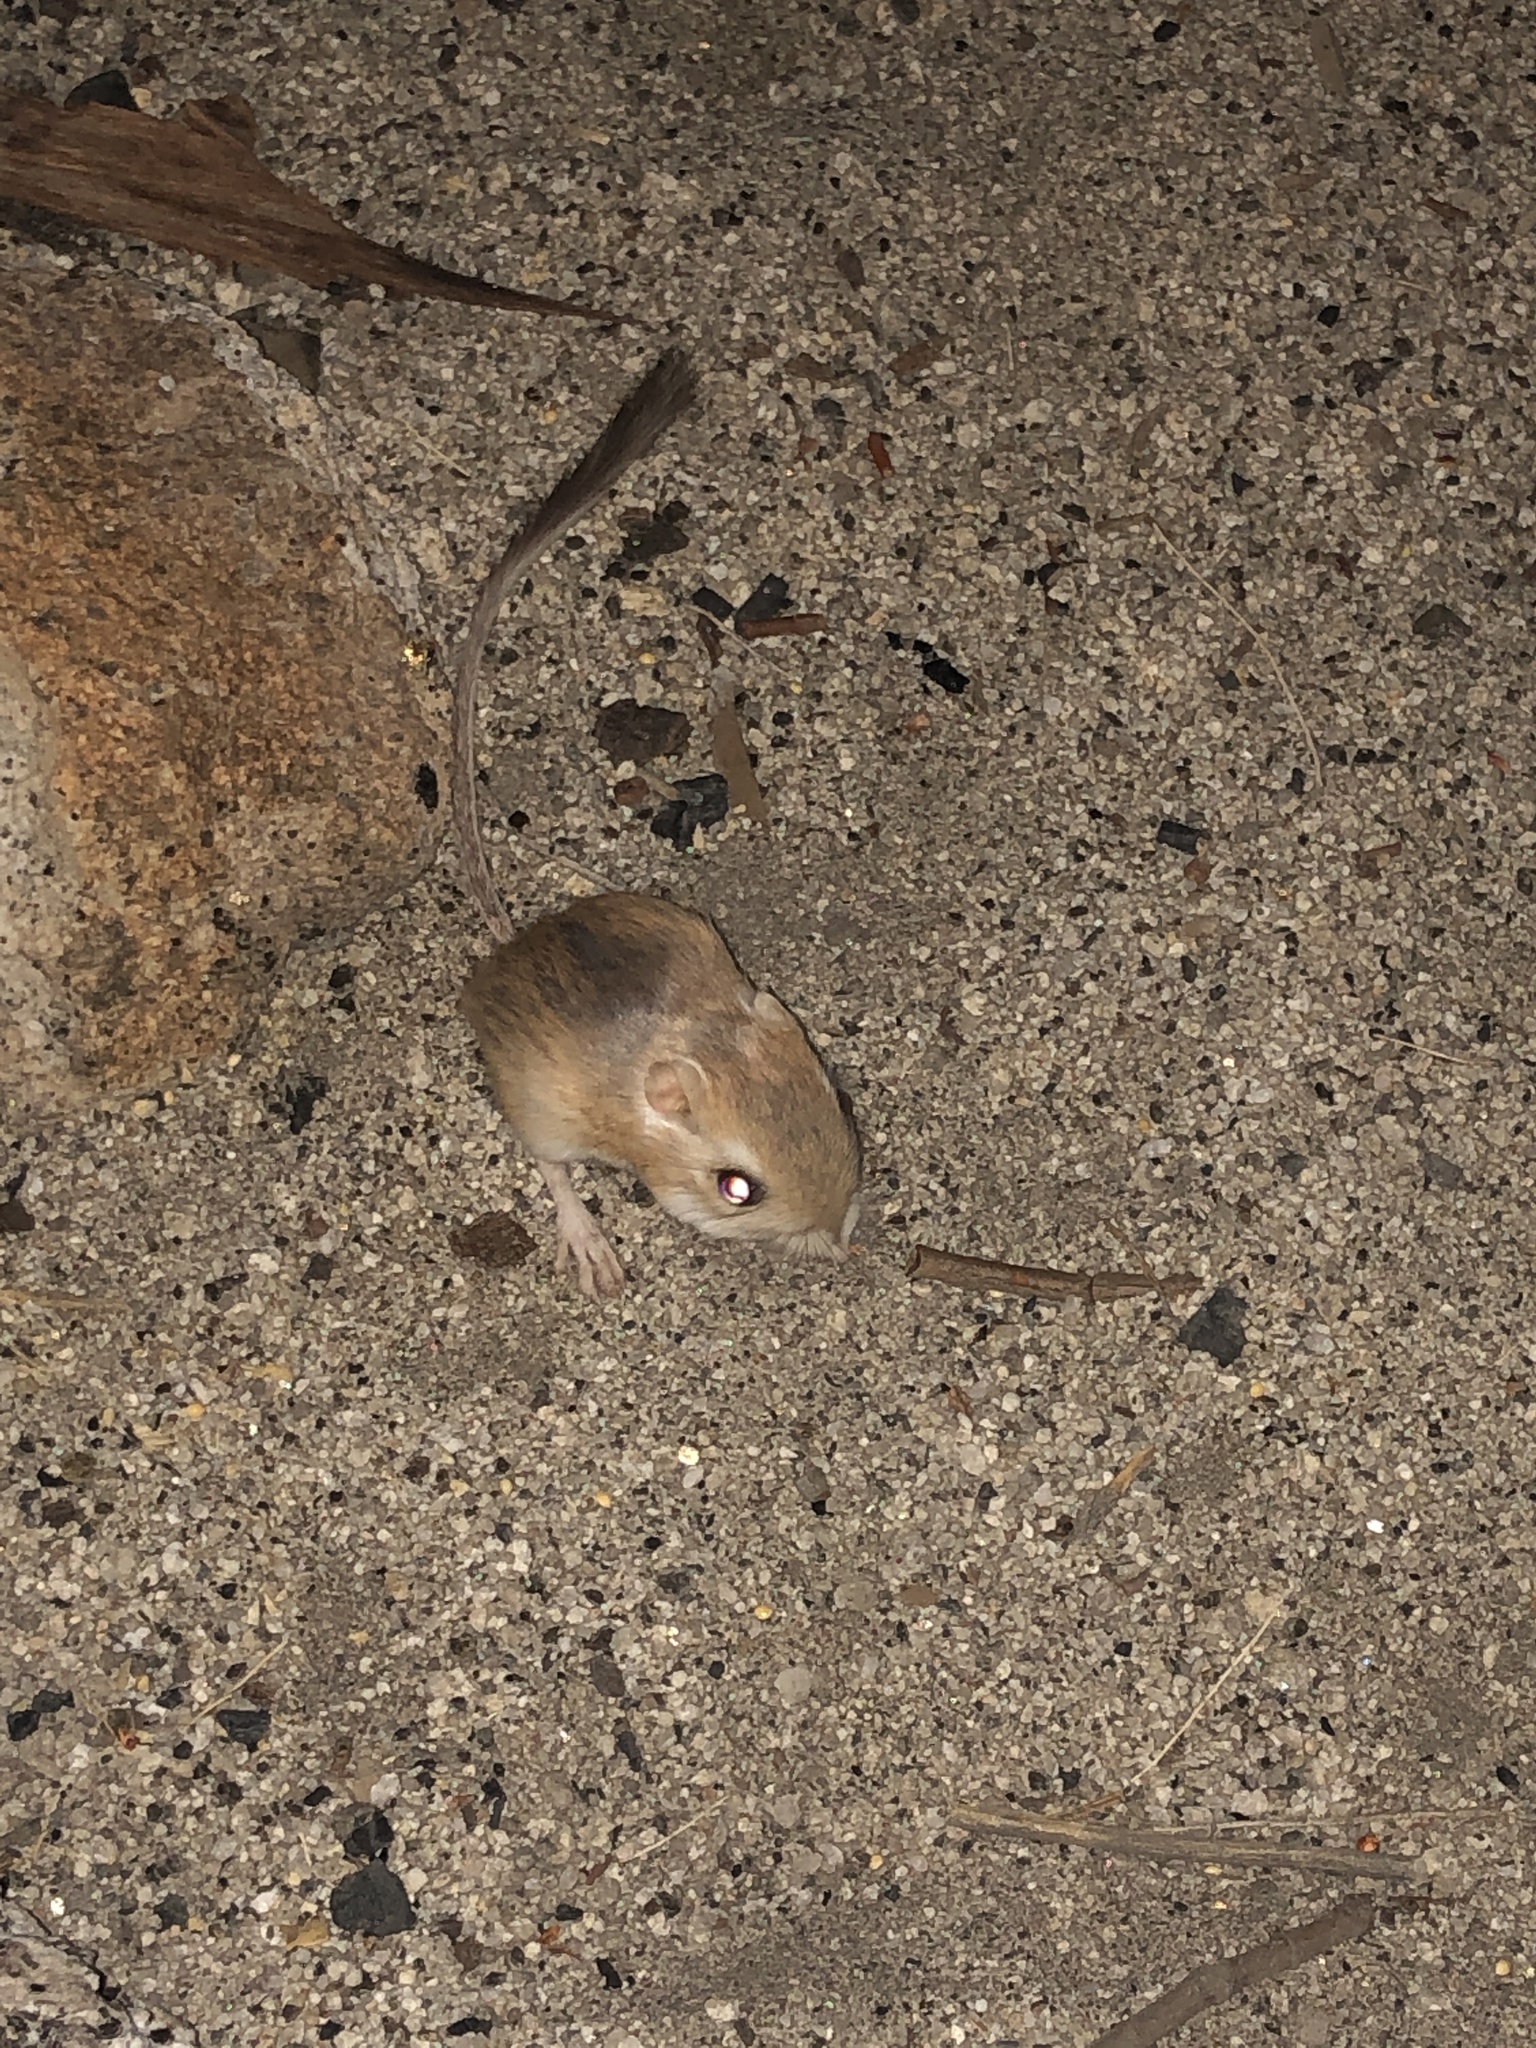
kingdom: Animalia
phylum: Chordata
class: Mammalia
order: Rodentia
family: Heteromyidae
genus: Dipodomys
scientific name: Dipodomys merriami
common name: Merriam's kangaroo rat
